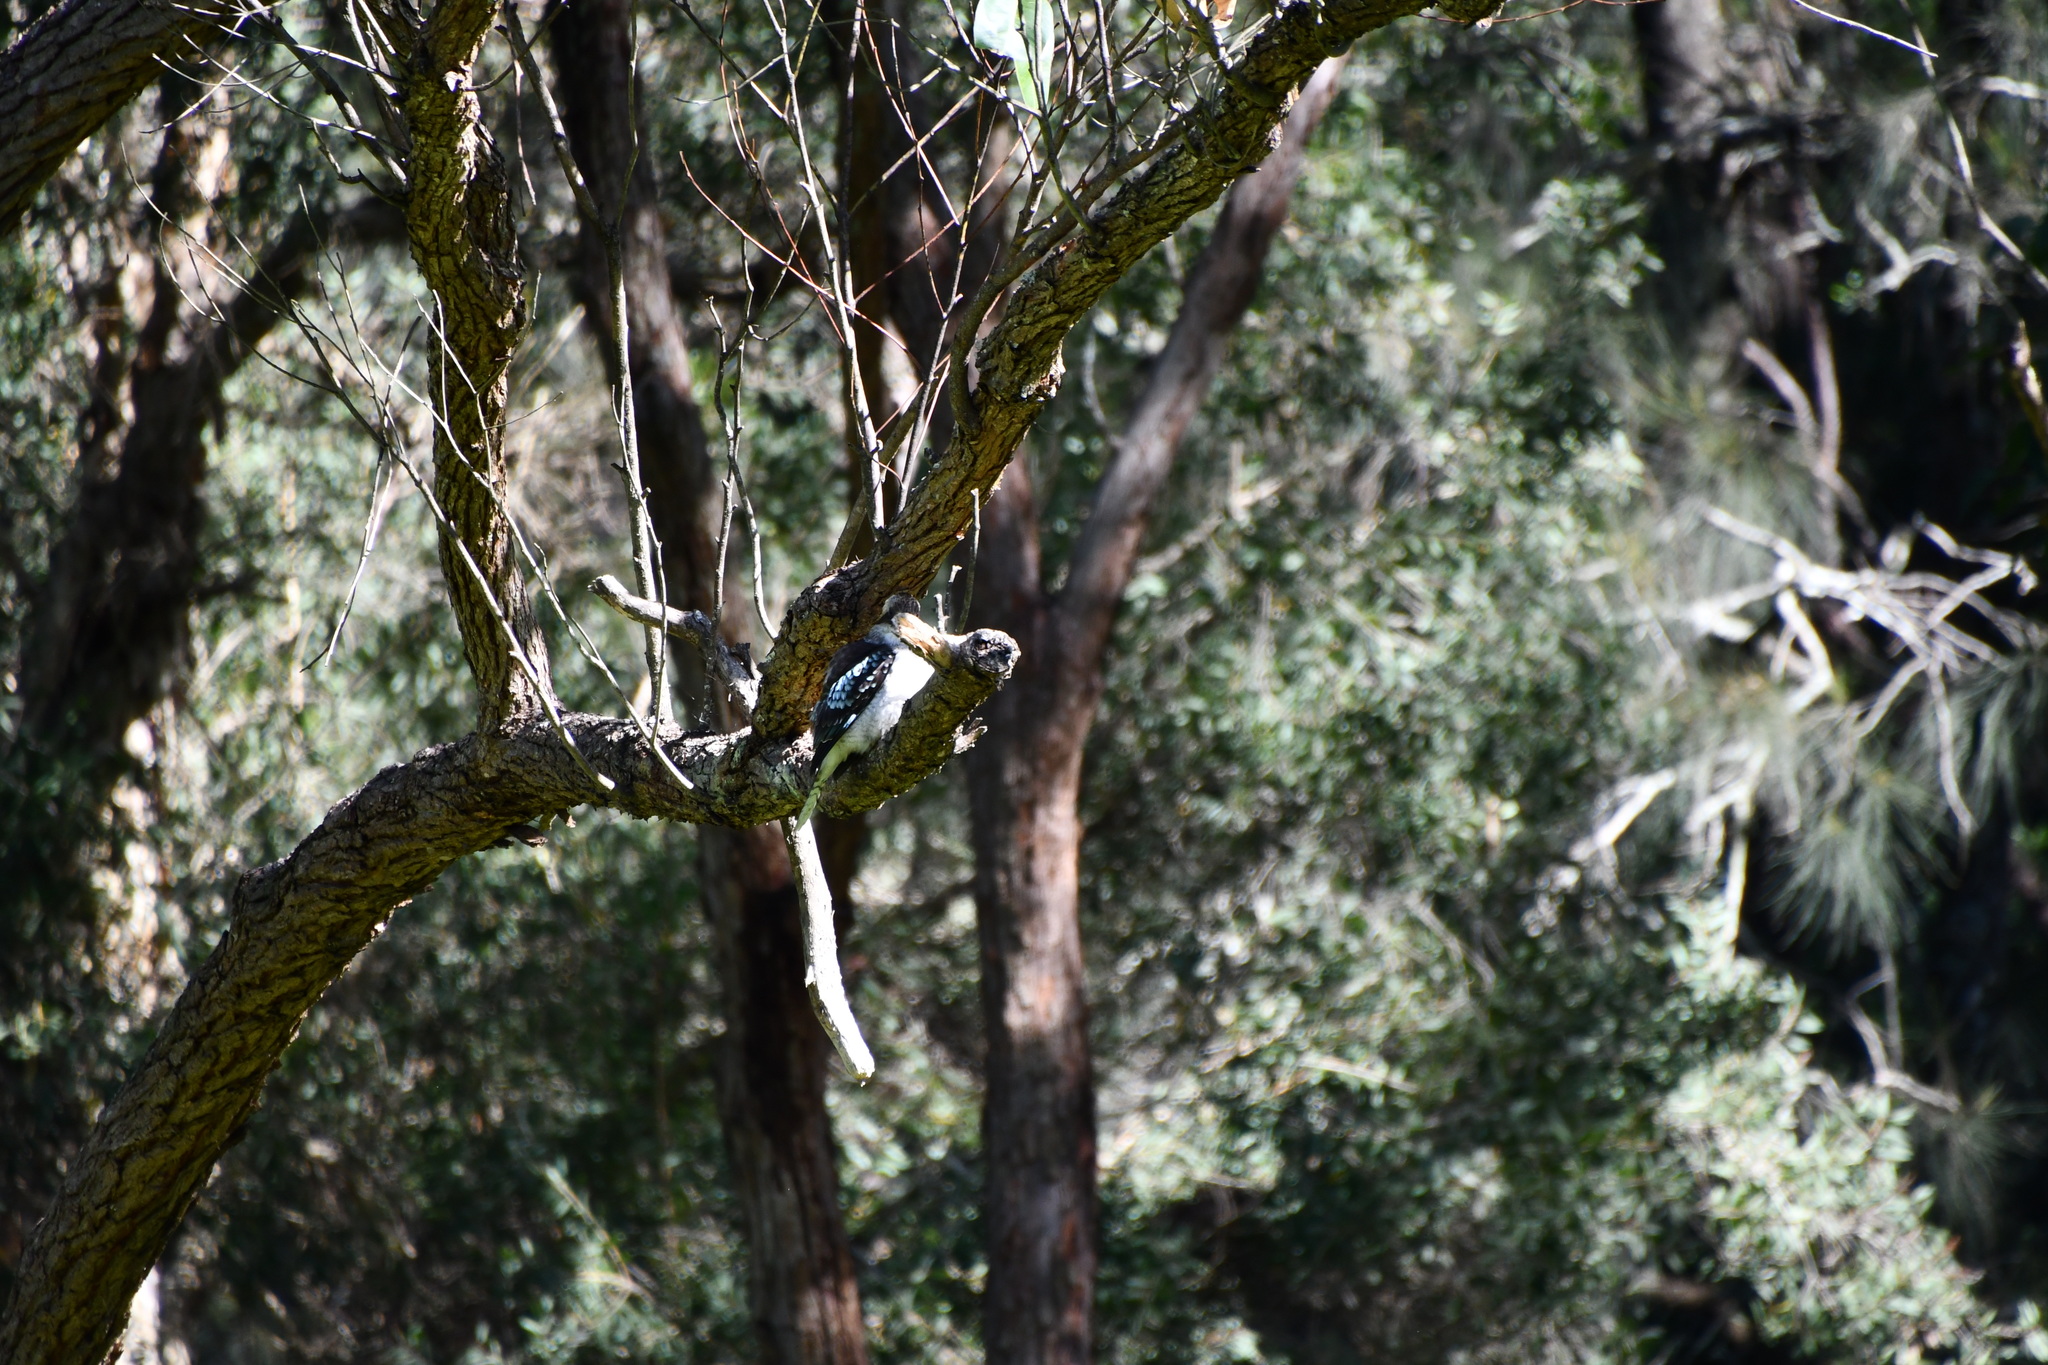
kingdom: Animalia
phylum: Chordata
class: Aves
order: Coraciiformes
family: Alcedinidae
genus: Dacelo
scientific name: Dacelo novaeguineae
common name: Laughing kookaburra
